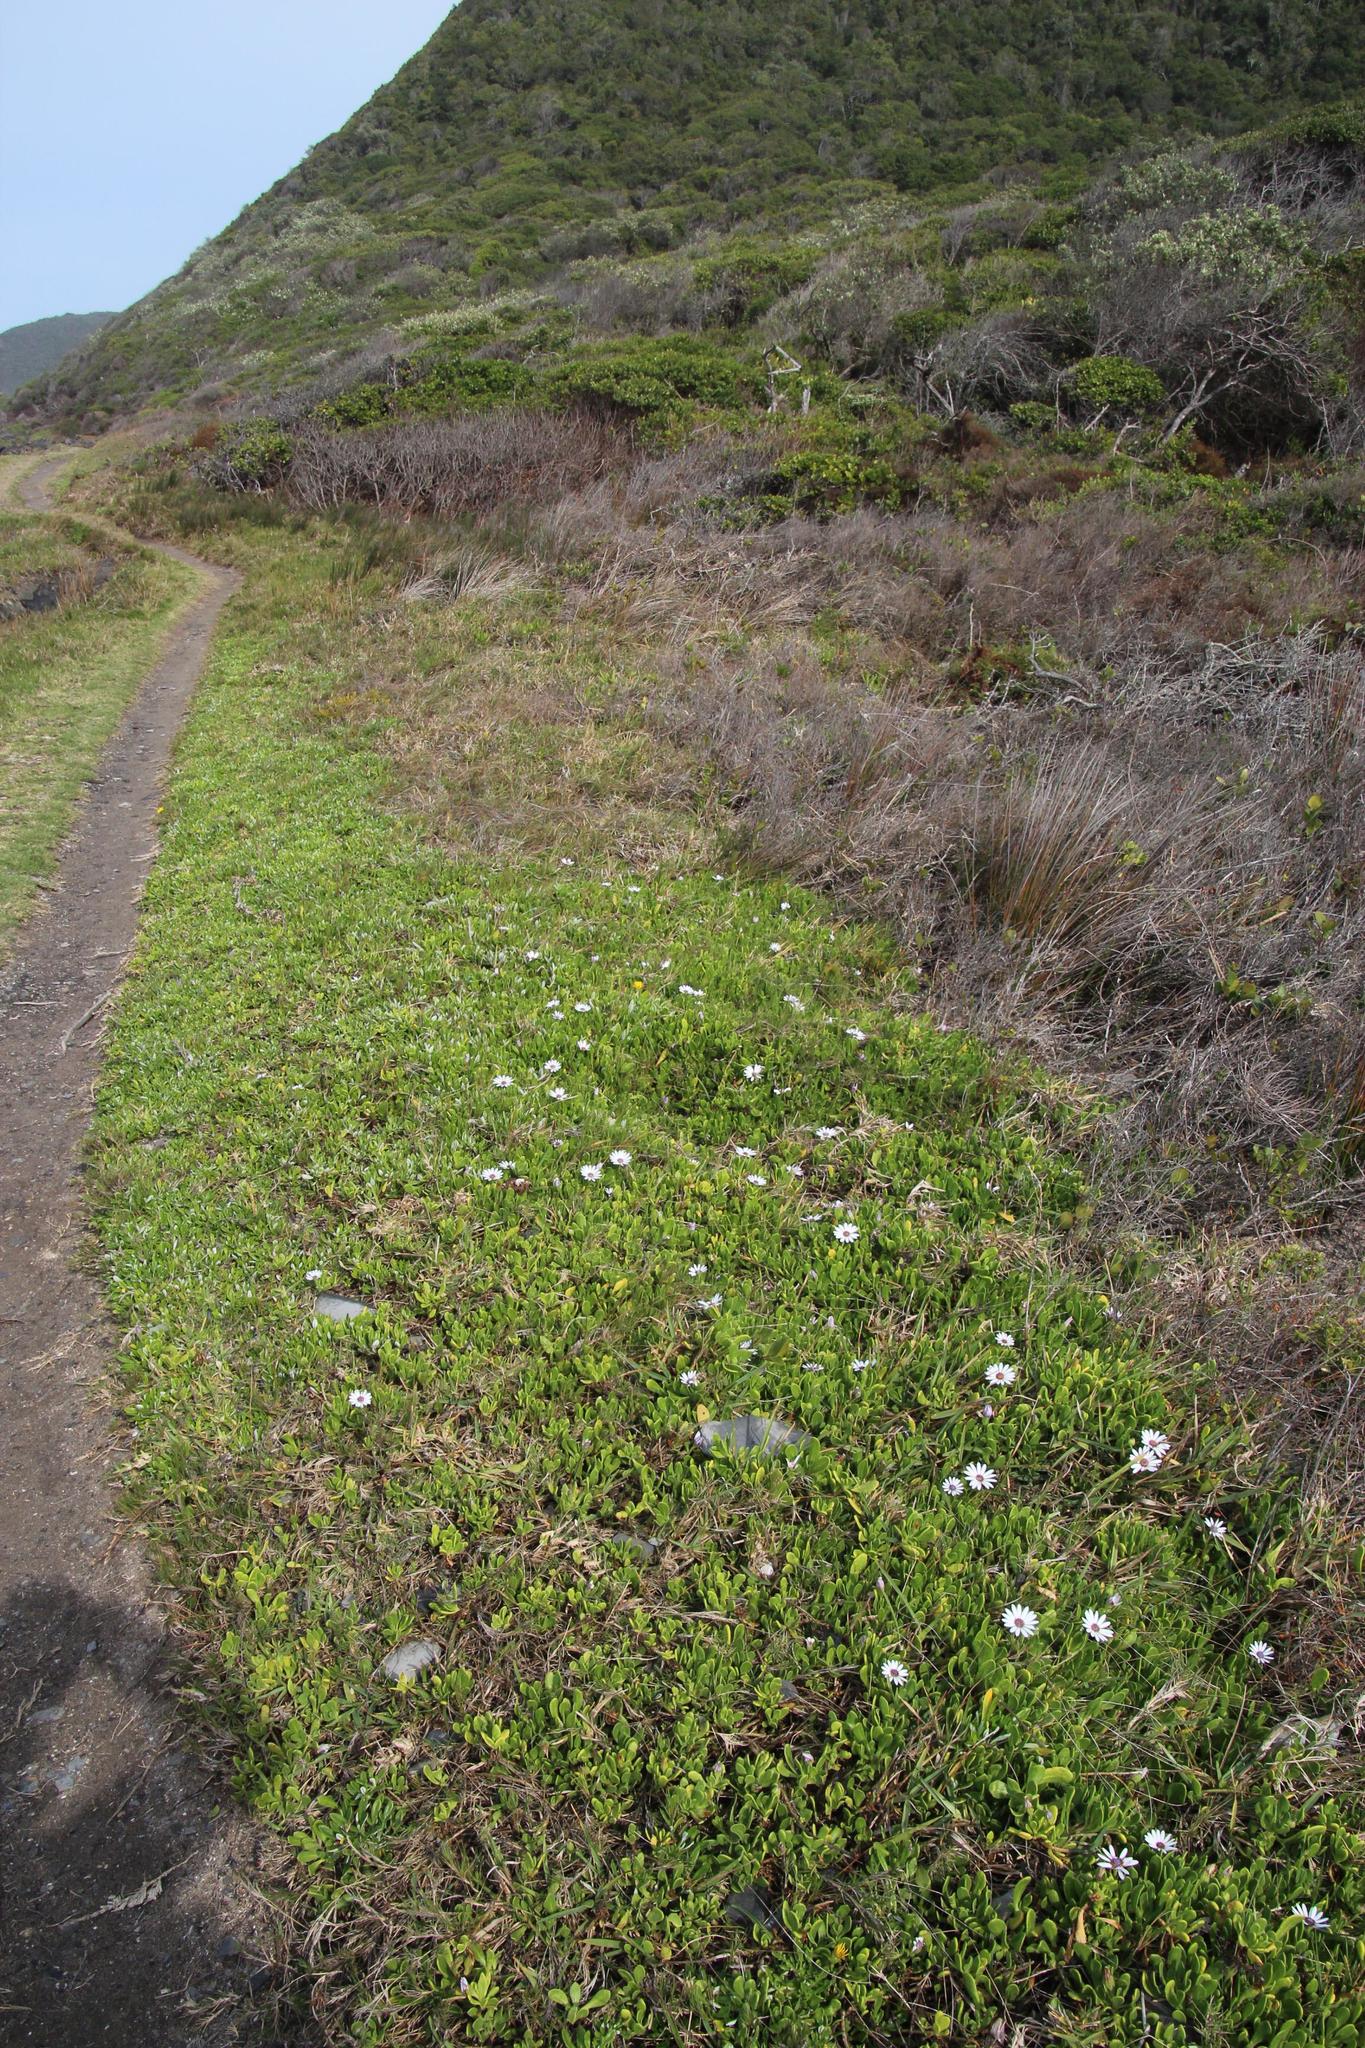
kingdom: Plantae
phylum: Tracheophyta
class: Magnoliopsida
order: Asterales
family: Asteraceae
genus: Dimorphotheca
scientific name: Dimorphotheca fruticosa
